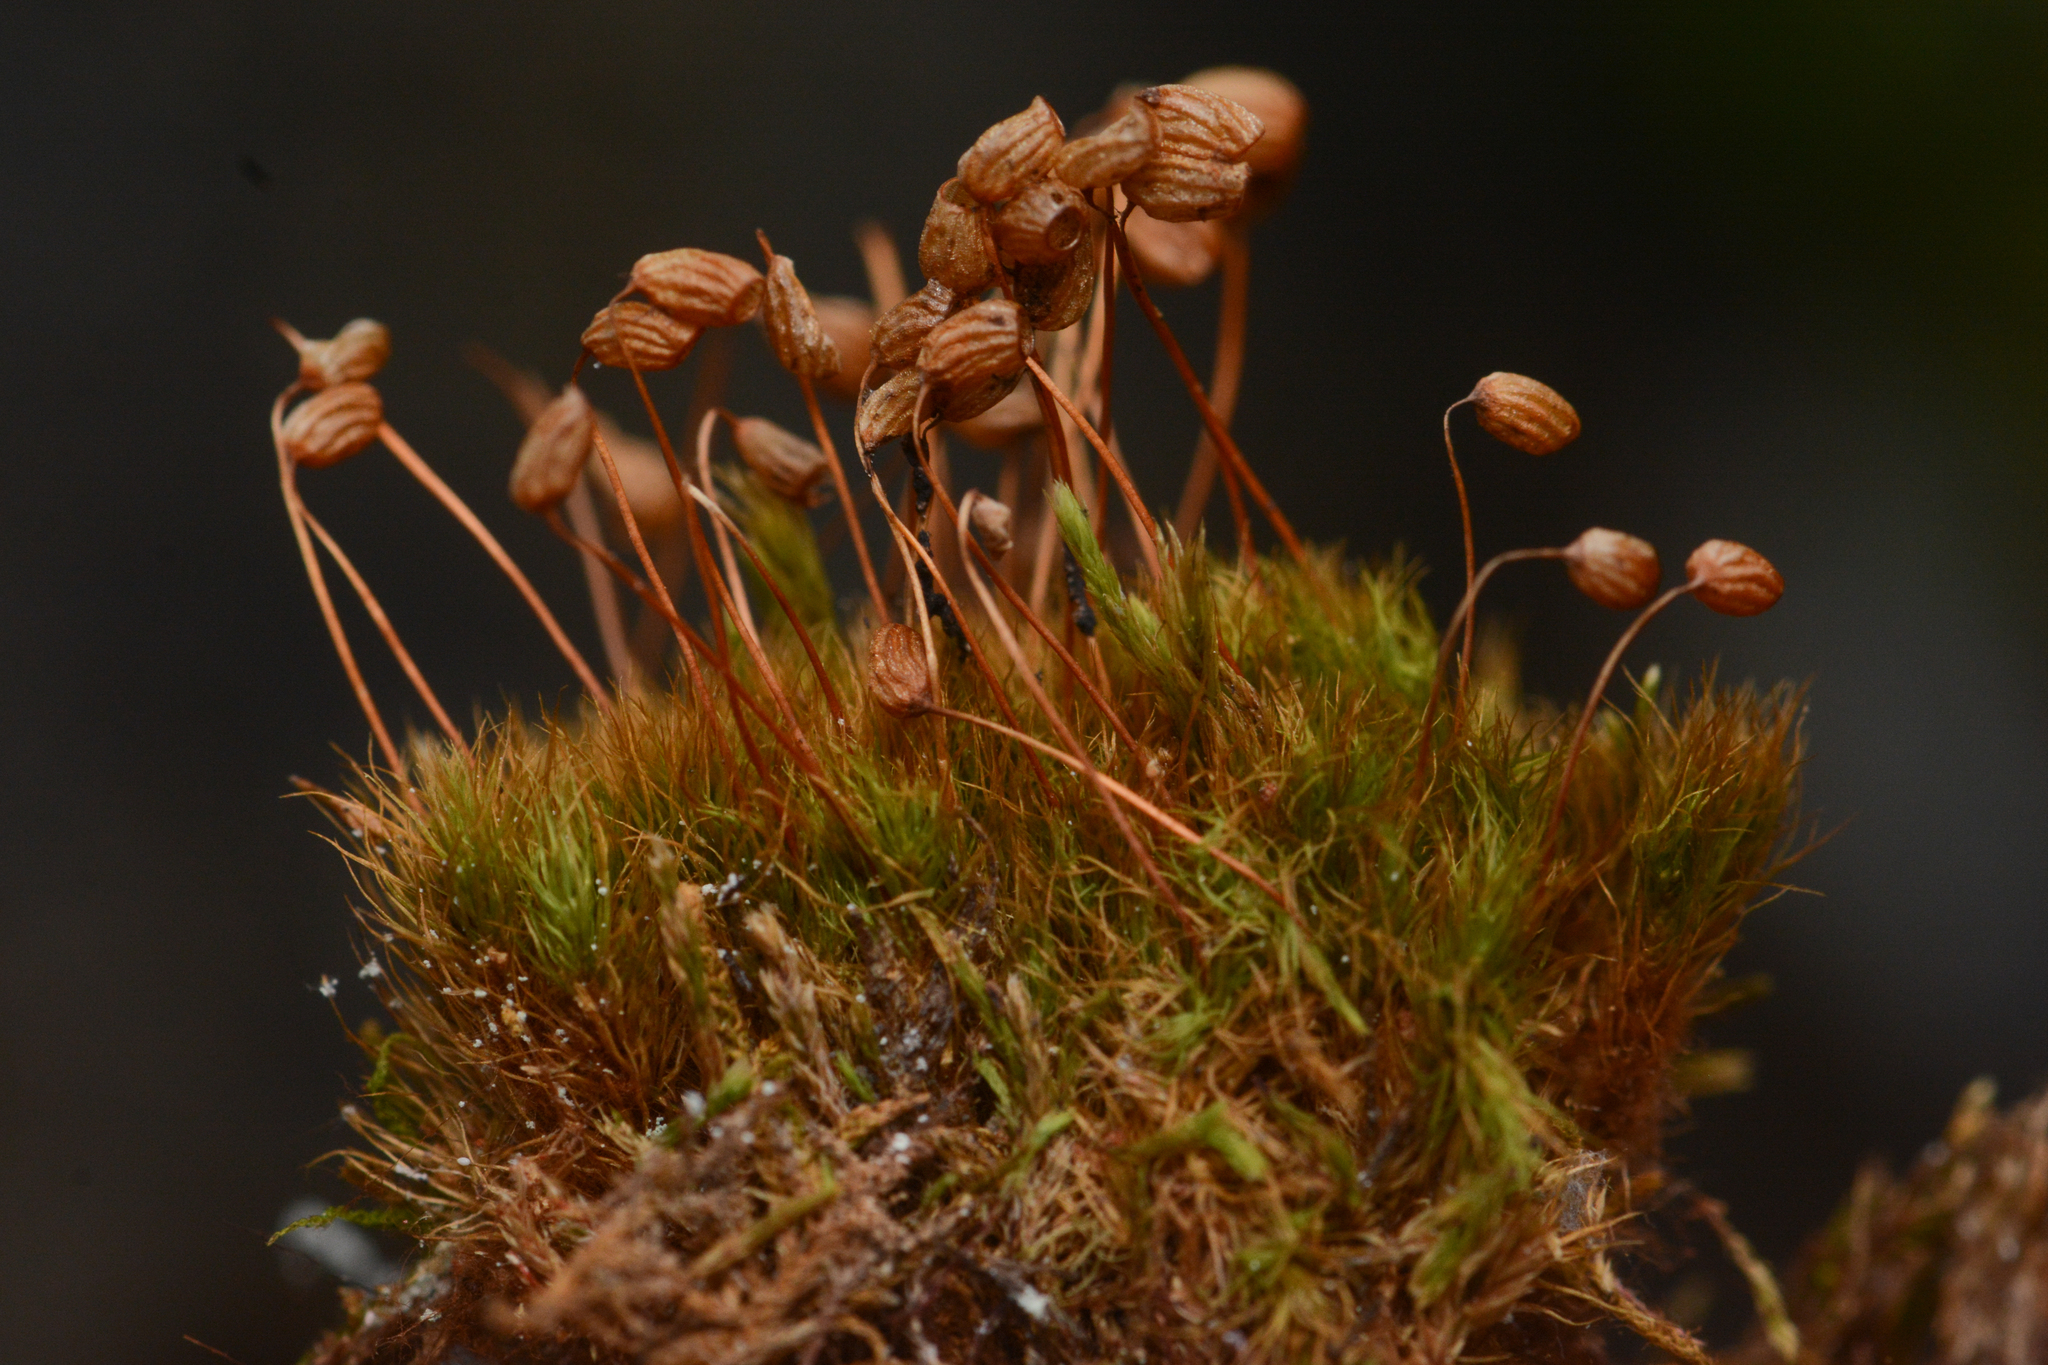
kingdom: Plantae
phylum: Bryophyta
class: Bryopsida
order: Bartramiales
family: Bartramiaceae
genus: Bartramia
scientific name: Bartramia ithyphylla
